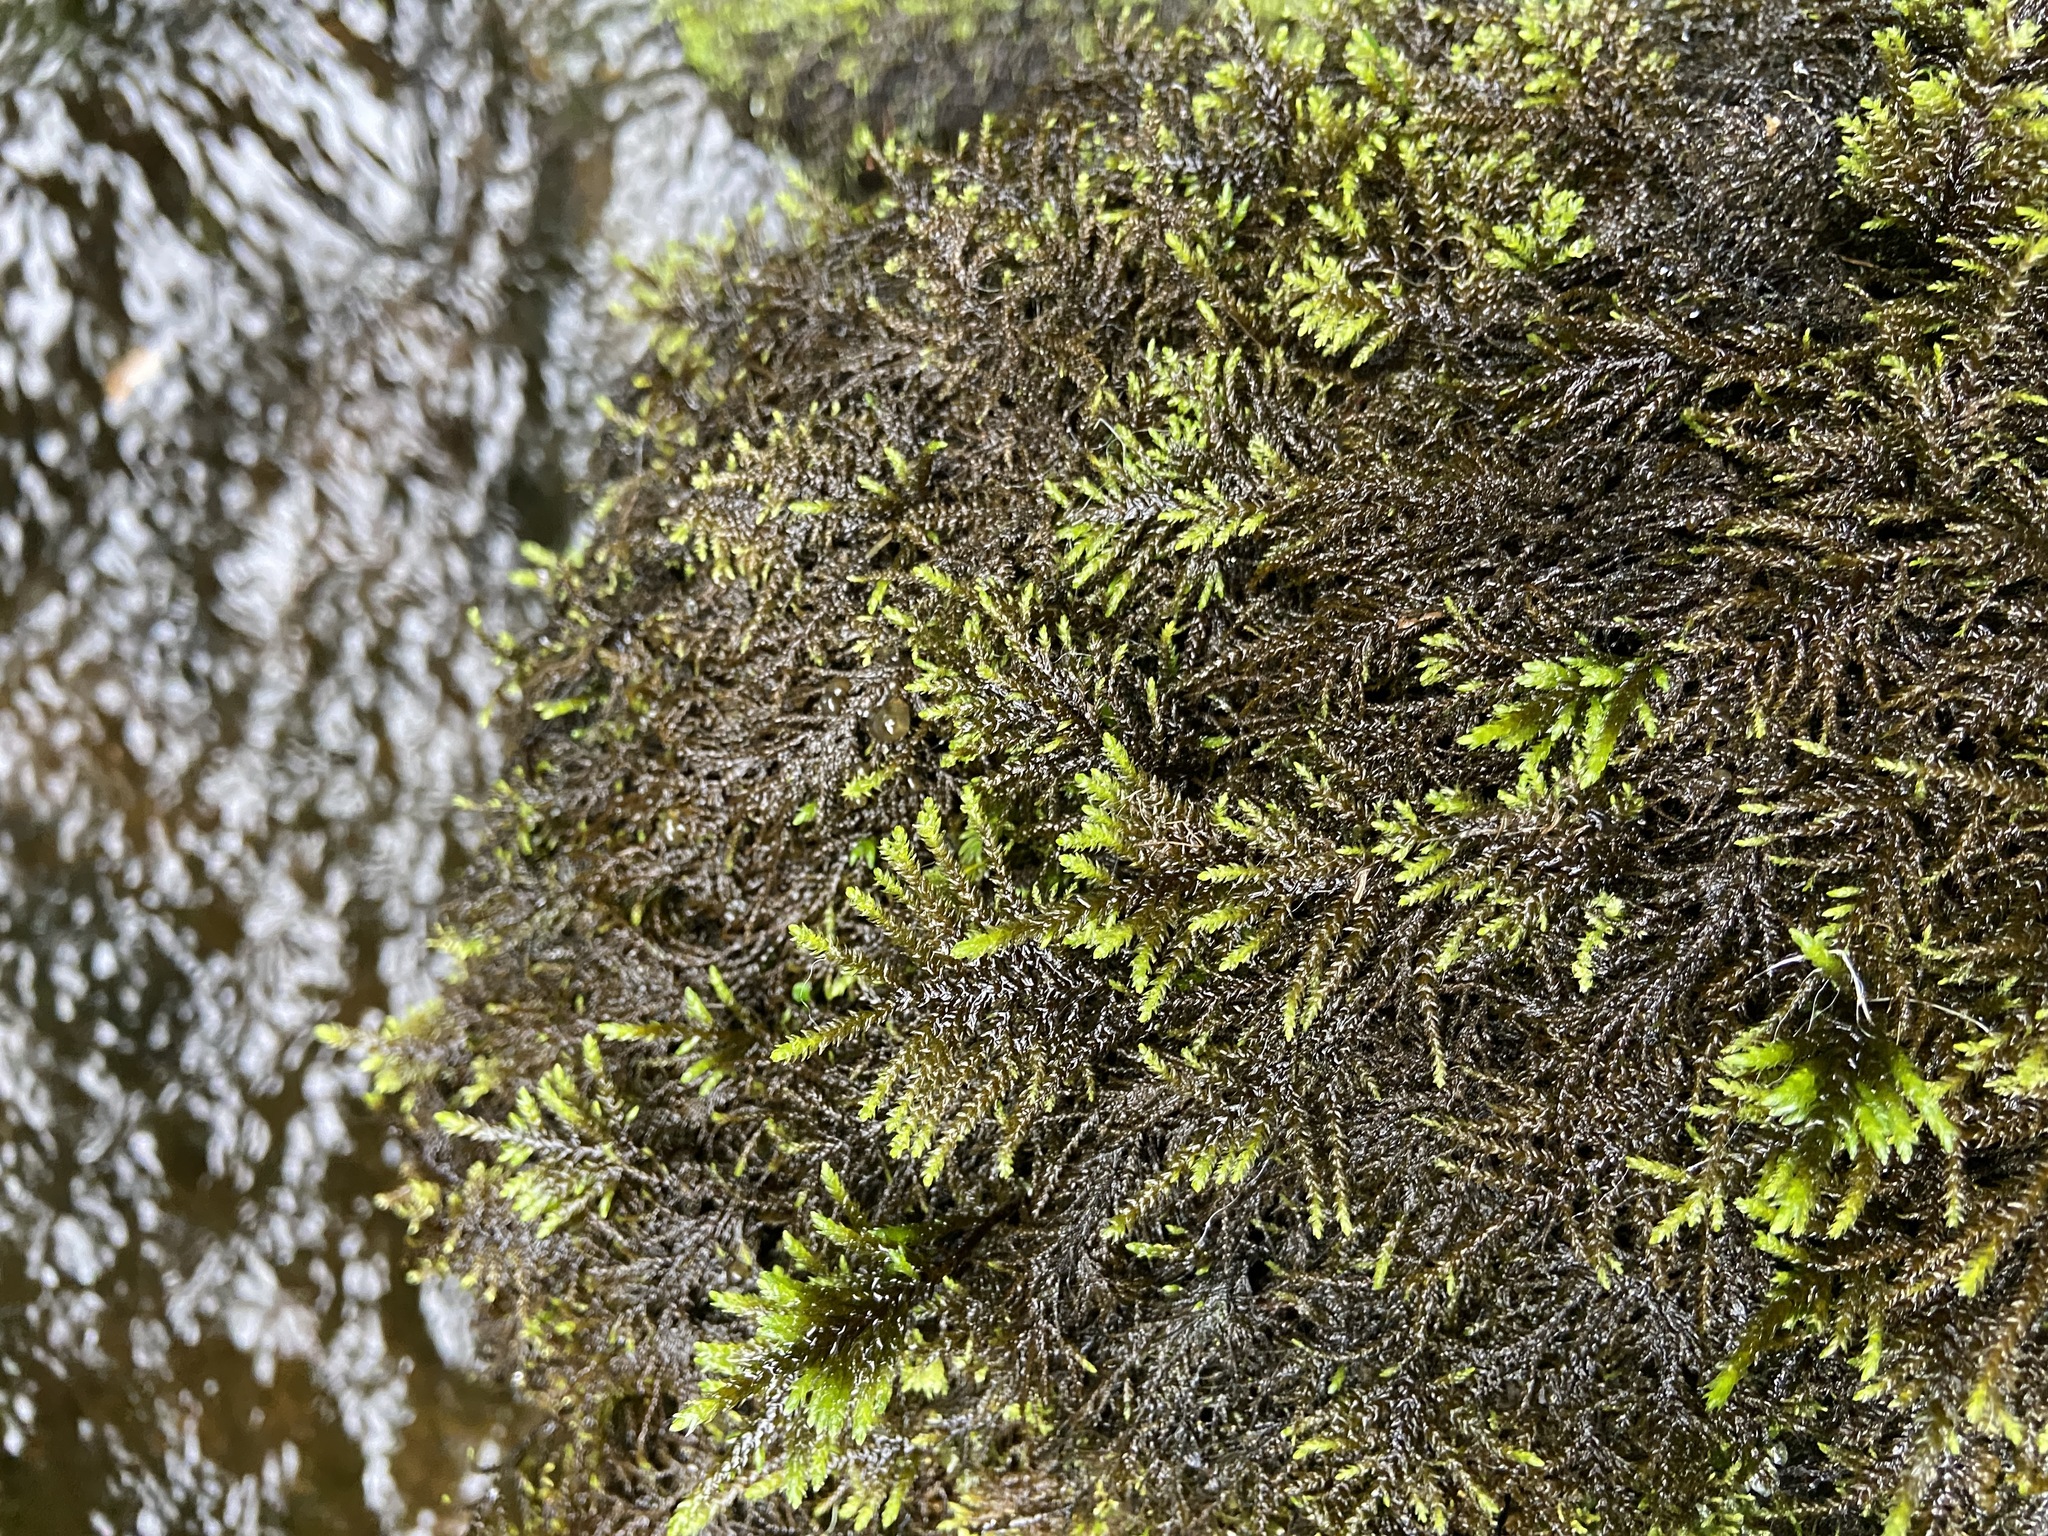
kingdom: Plantae
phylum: Bryophyta
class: Bryopsida
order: Hypnales
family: Myuriaceae
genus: Hyocomium
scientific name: Hyocomium armoricum
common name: Flagellate feather-moss
